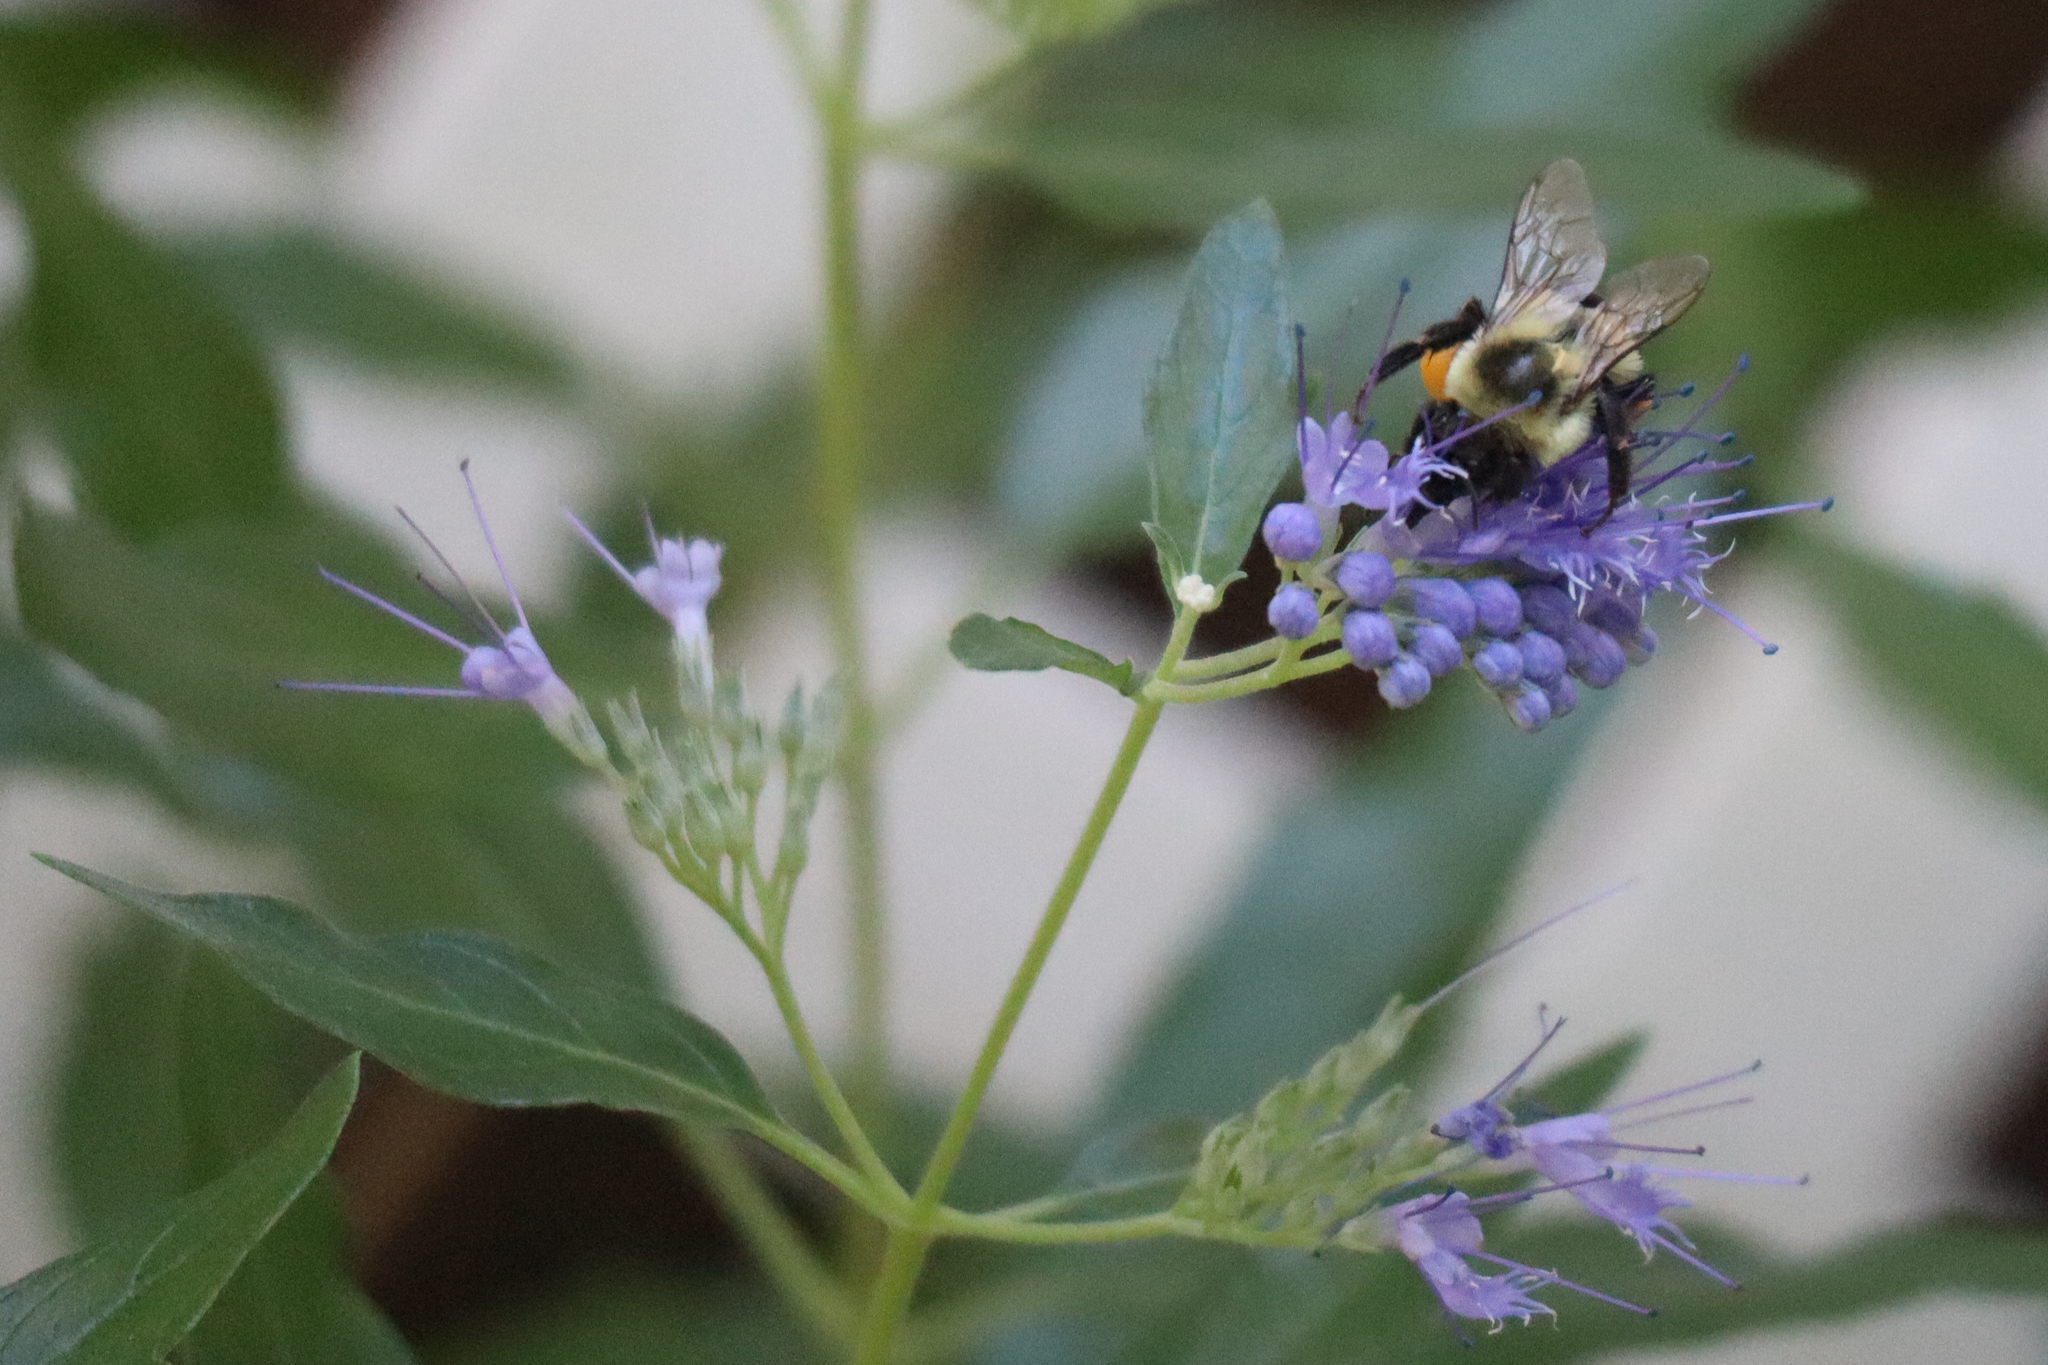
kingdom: Animalia
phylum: Arthropoda
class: Insecta
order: Hymenoptera
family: Apidae
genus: Bombus
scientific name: Bombus impatiens
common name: Common eastern bumble bee
